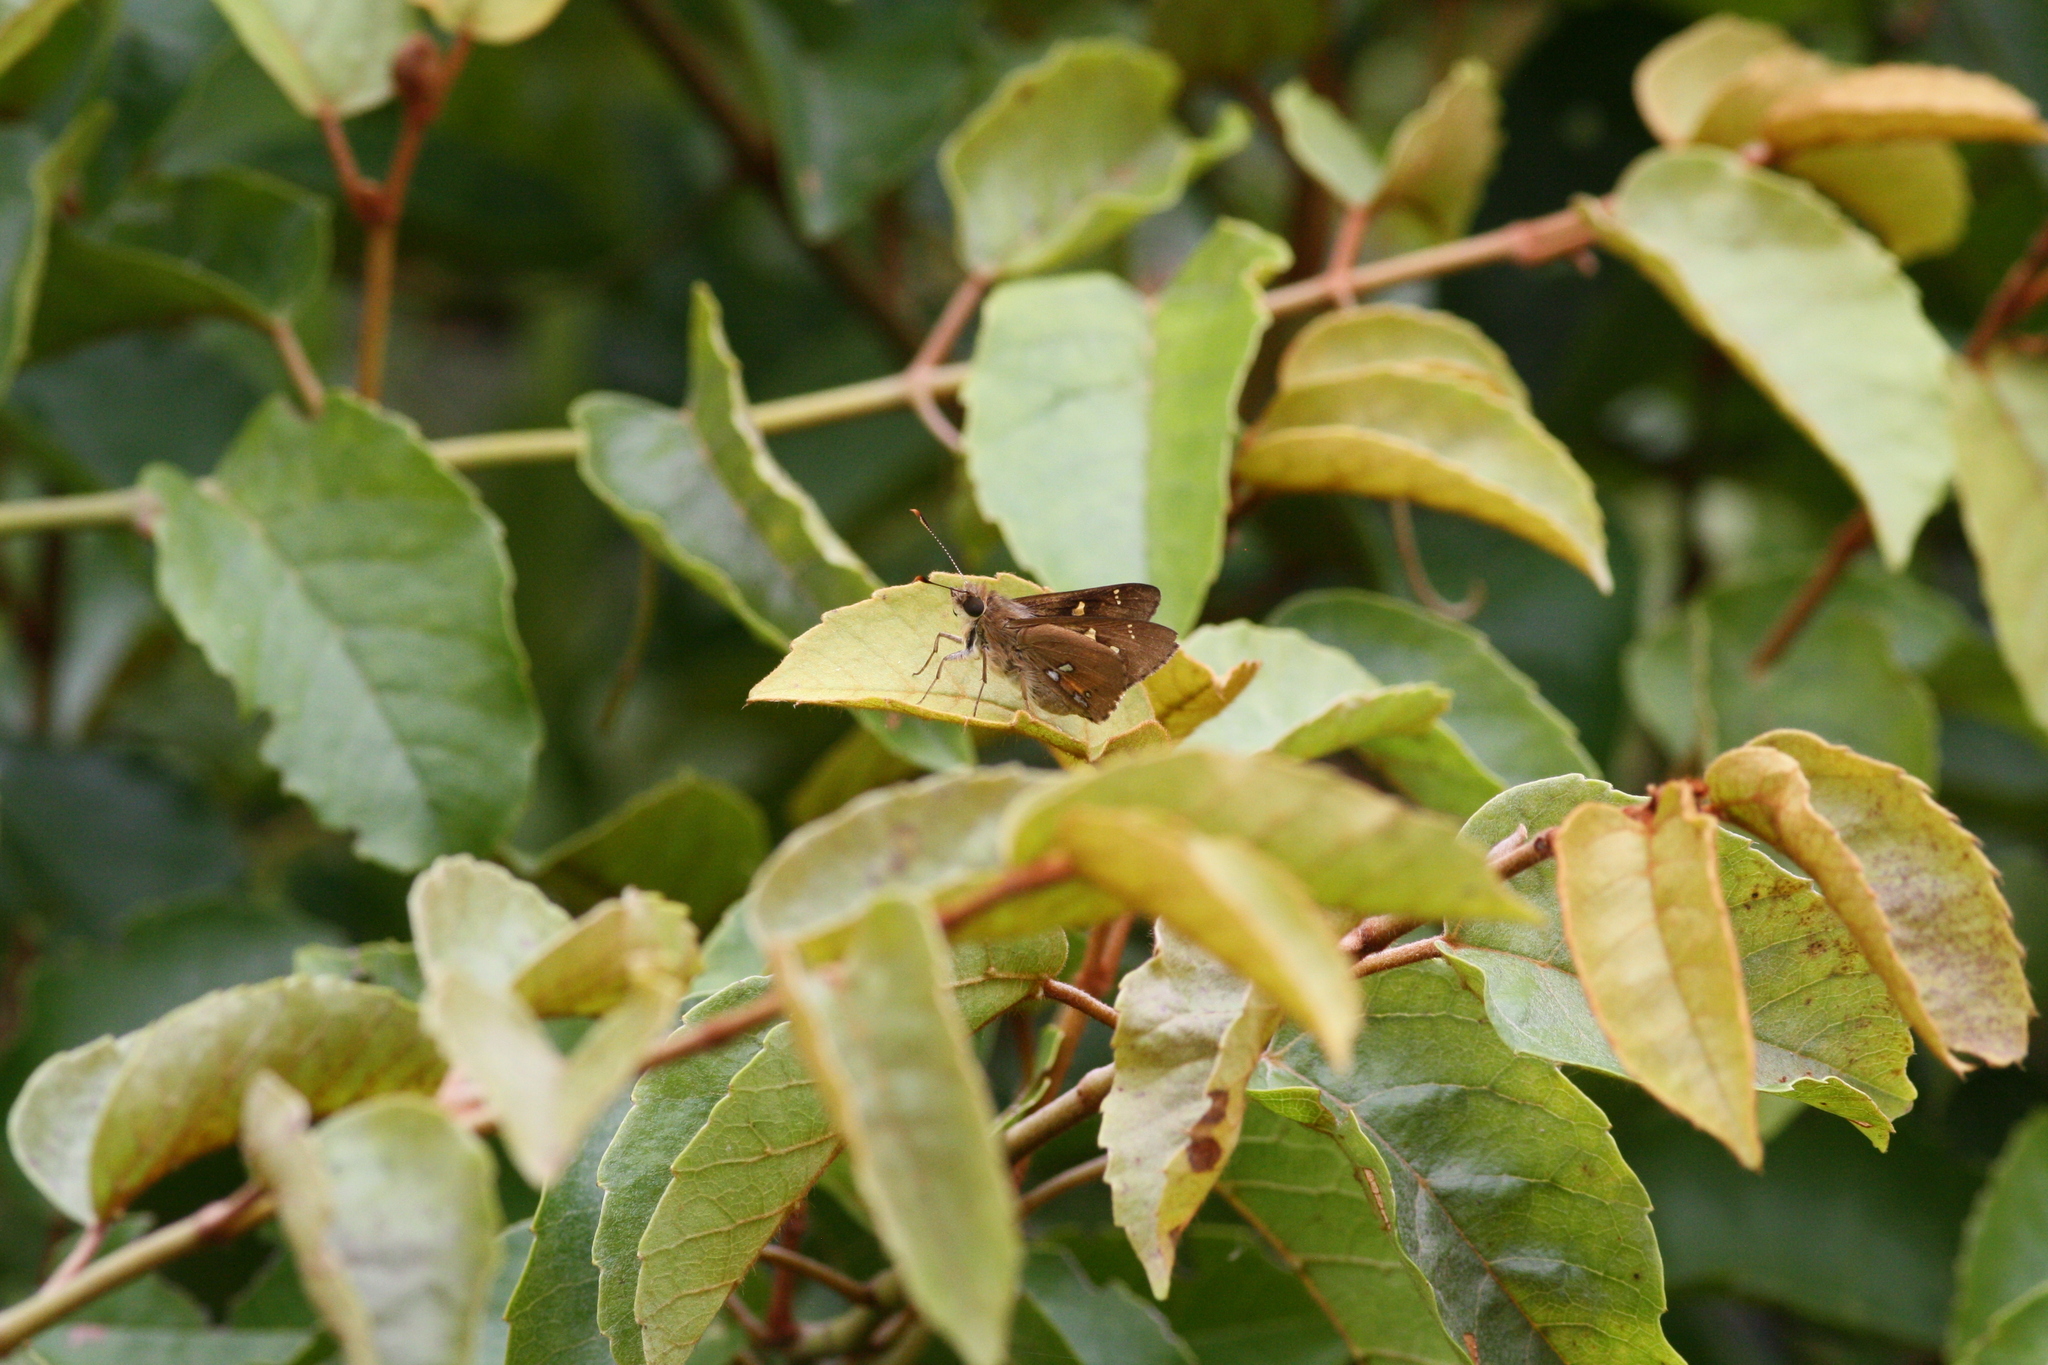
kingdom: Animalia
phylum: Arthropoda
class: Insecta
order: Lepidoptera
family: Hesperiidae
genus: Trapezites
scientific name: Trapezites praxedes
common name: Southern silver ochre
